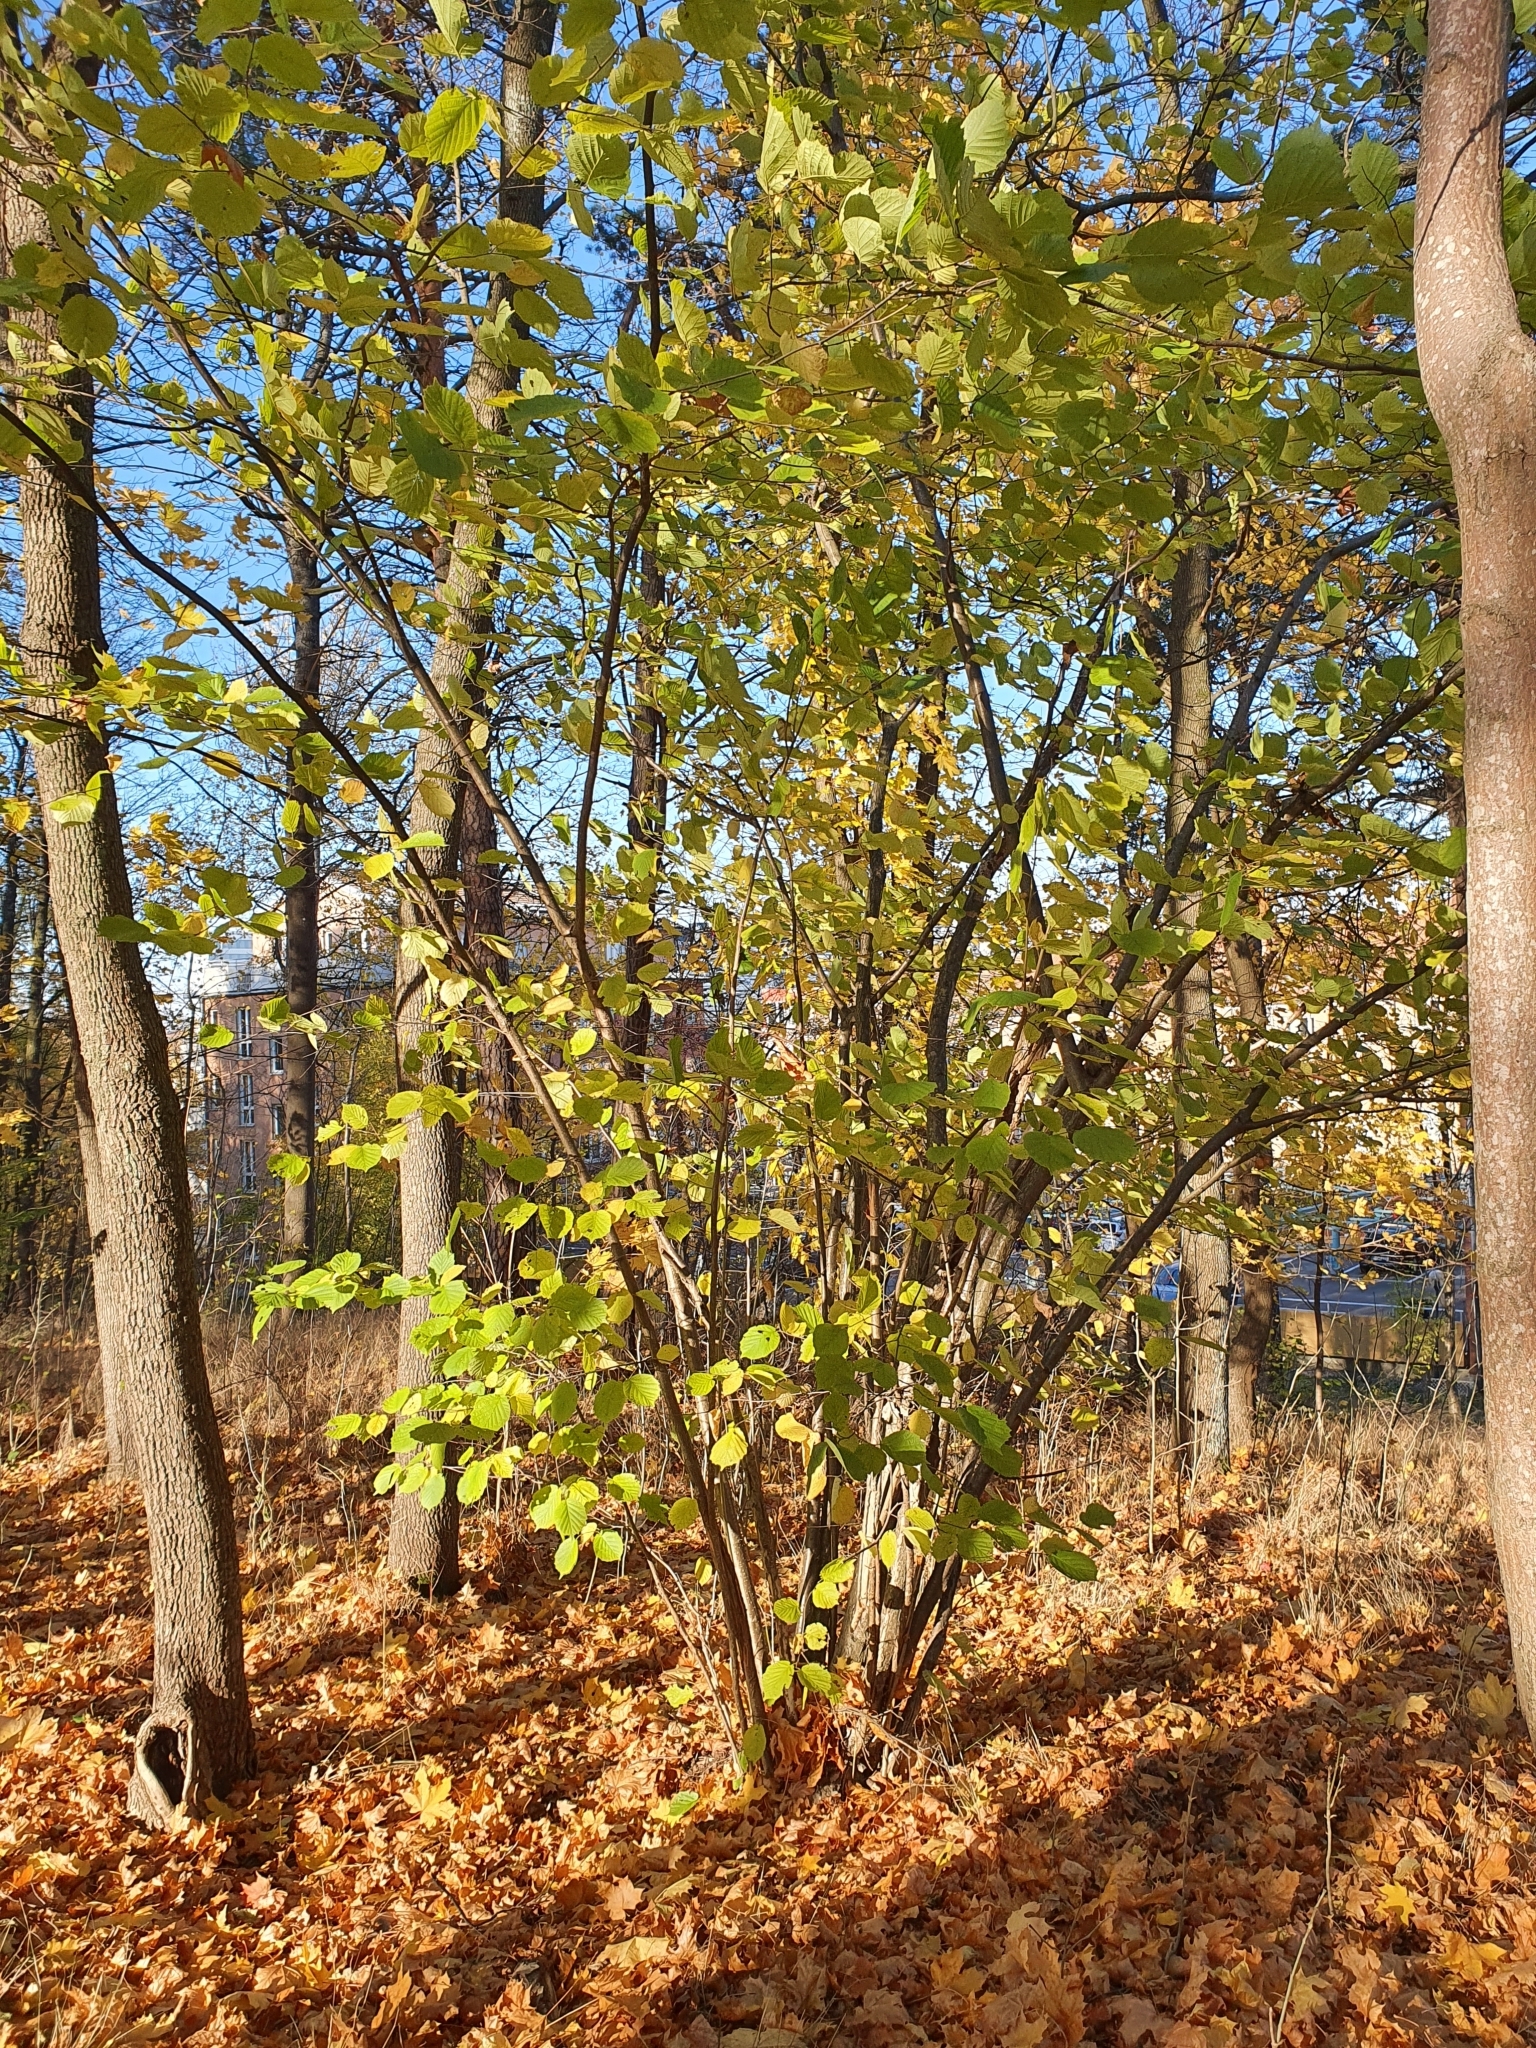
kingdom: Plantae
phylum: Tracheophyta
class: Magnoliopsida
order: Fagales
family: Betulaceae
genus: Corylus
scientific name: Corylus avellana
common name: European hazel
